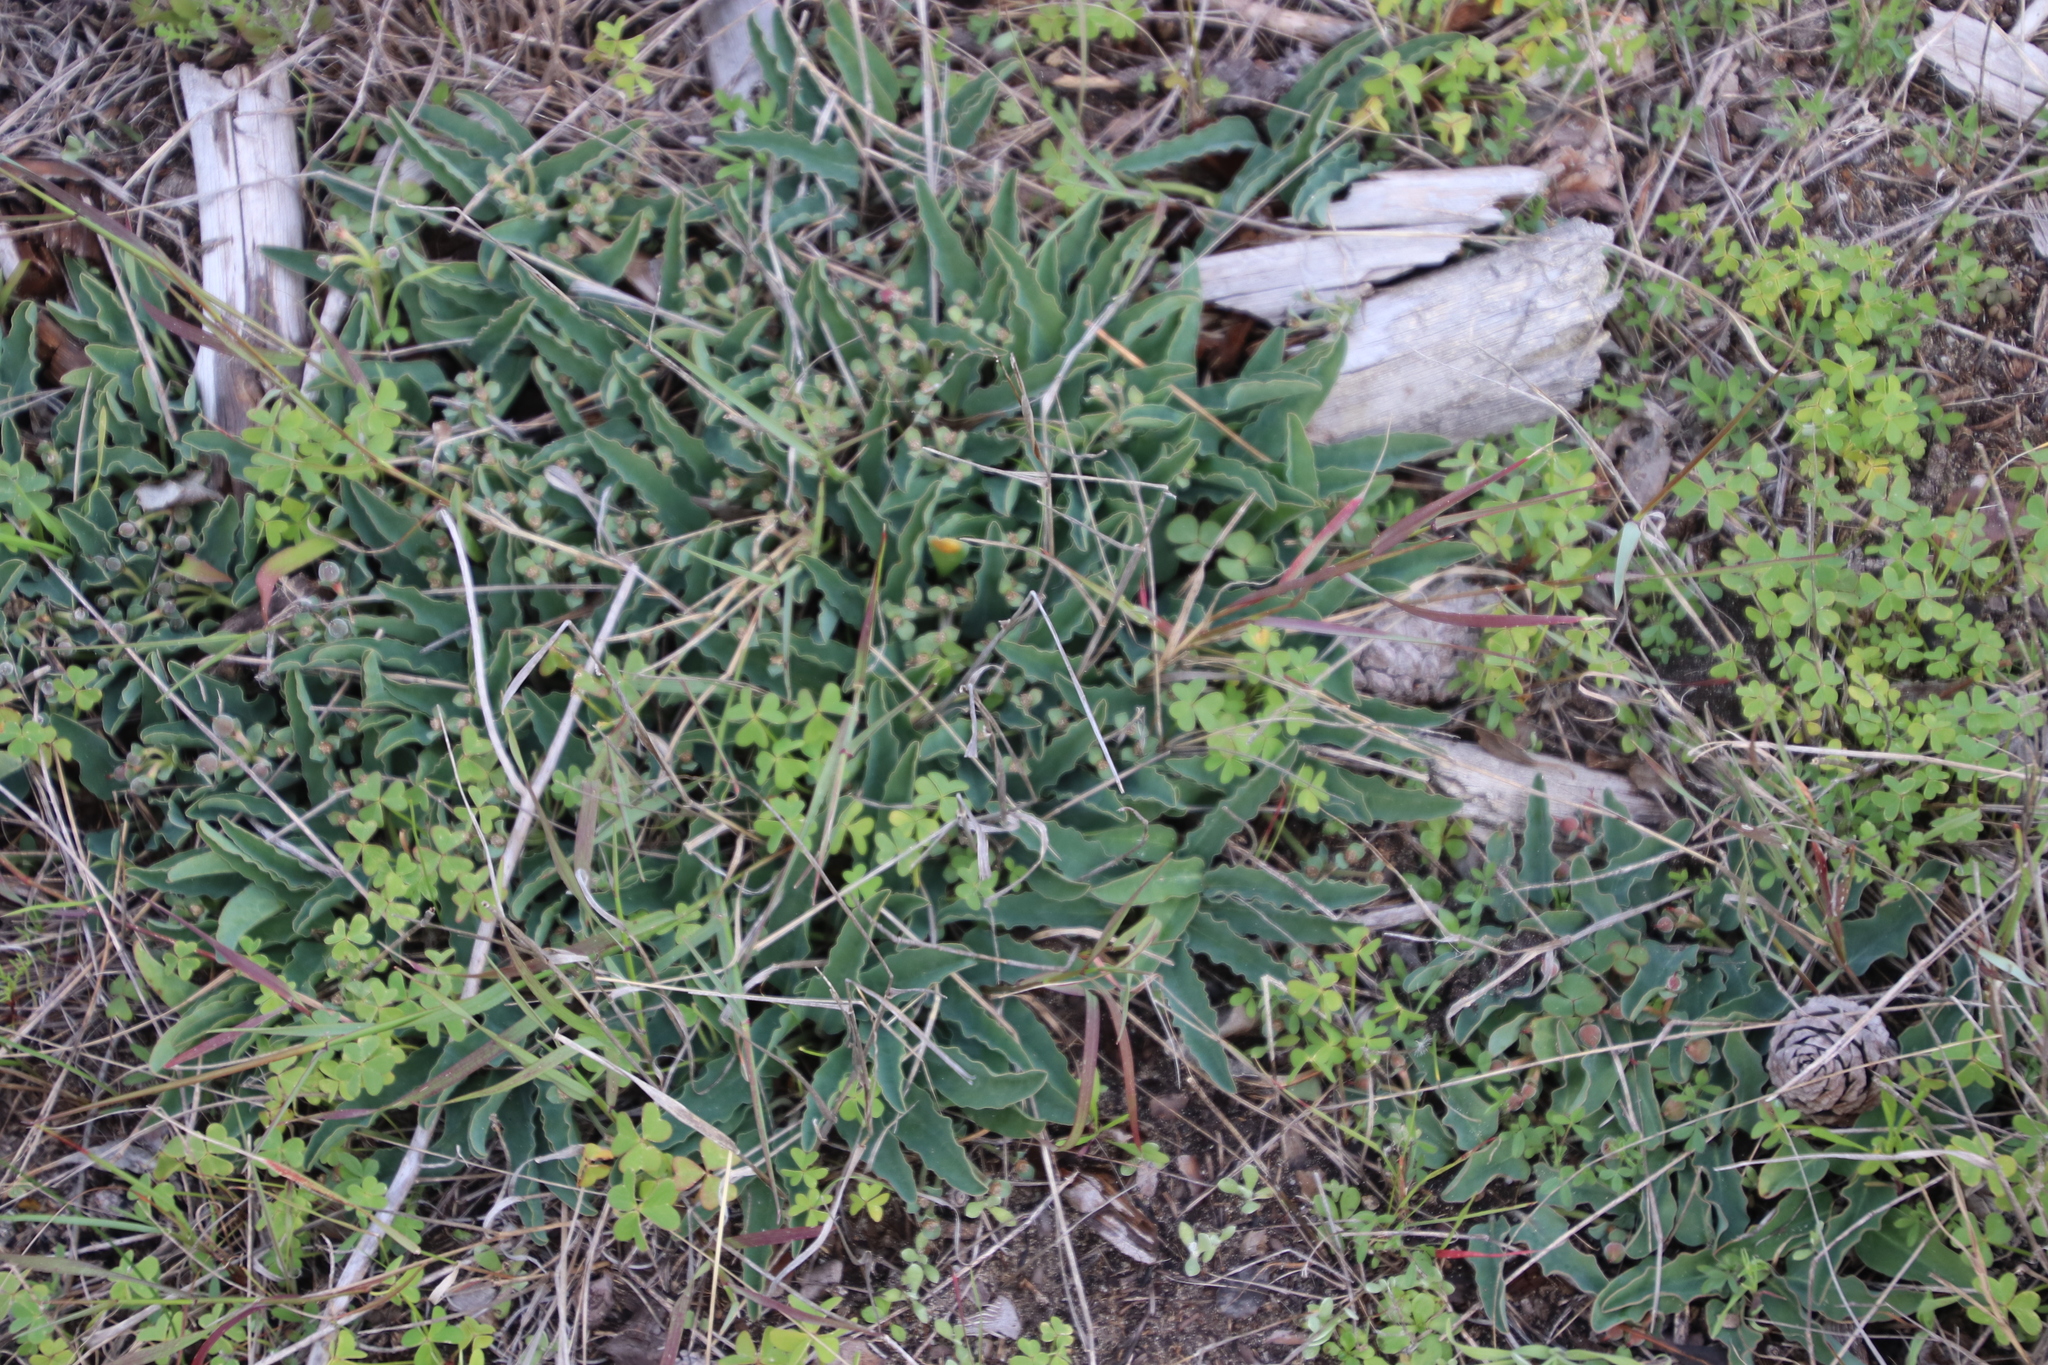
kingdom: Plantae
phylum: Tracheophyta
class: Magnoliopsida
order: Malpighiales
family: Euphorbiaceae
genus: Euphorbia
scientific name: Euphorbia tuberosa
